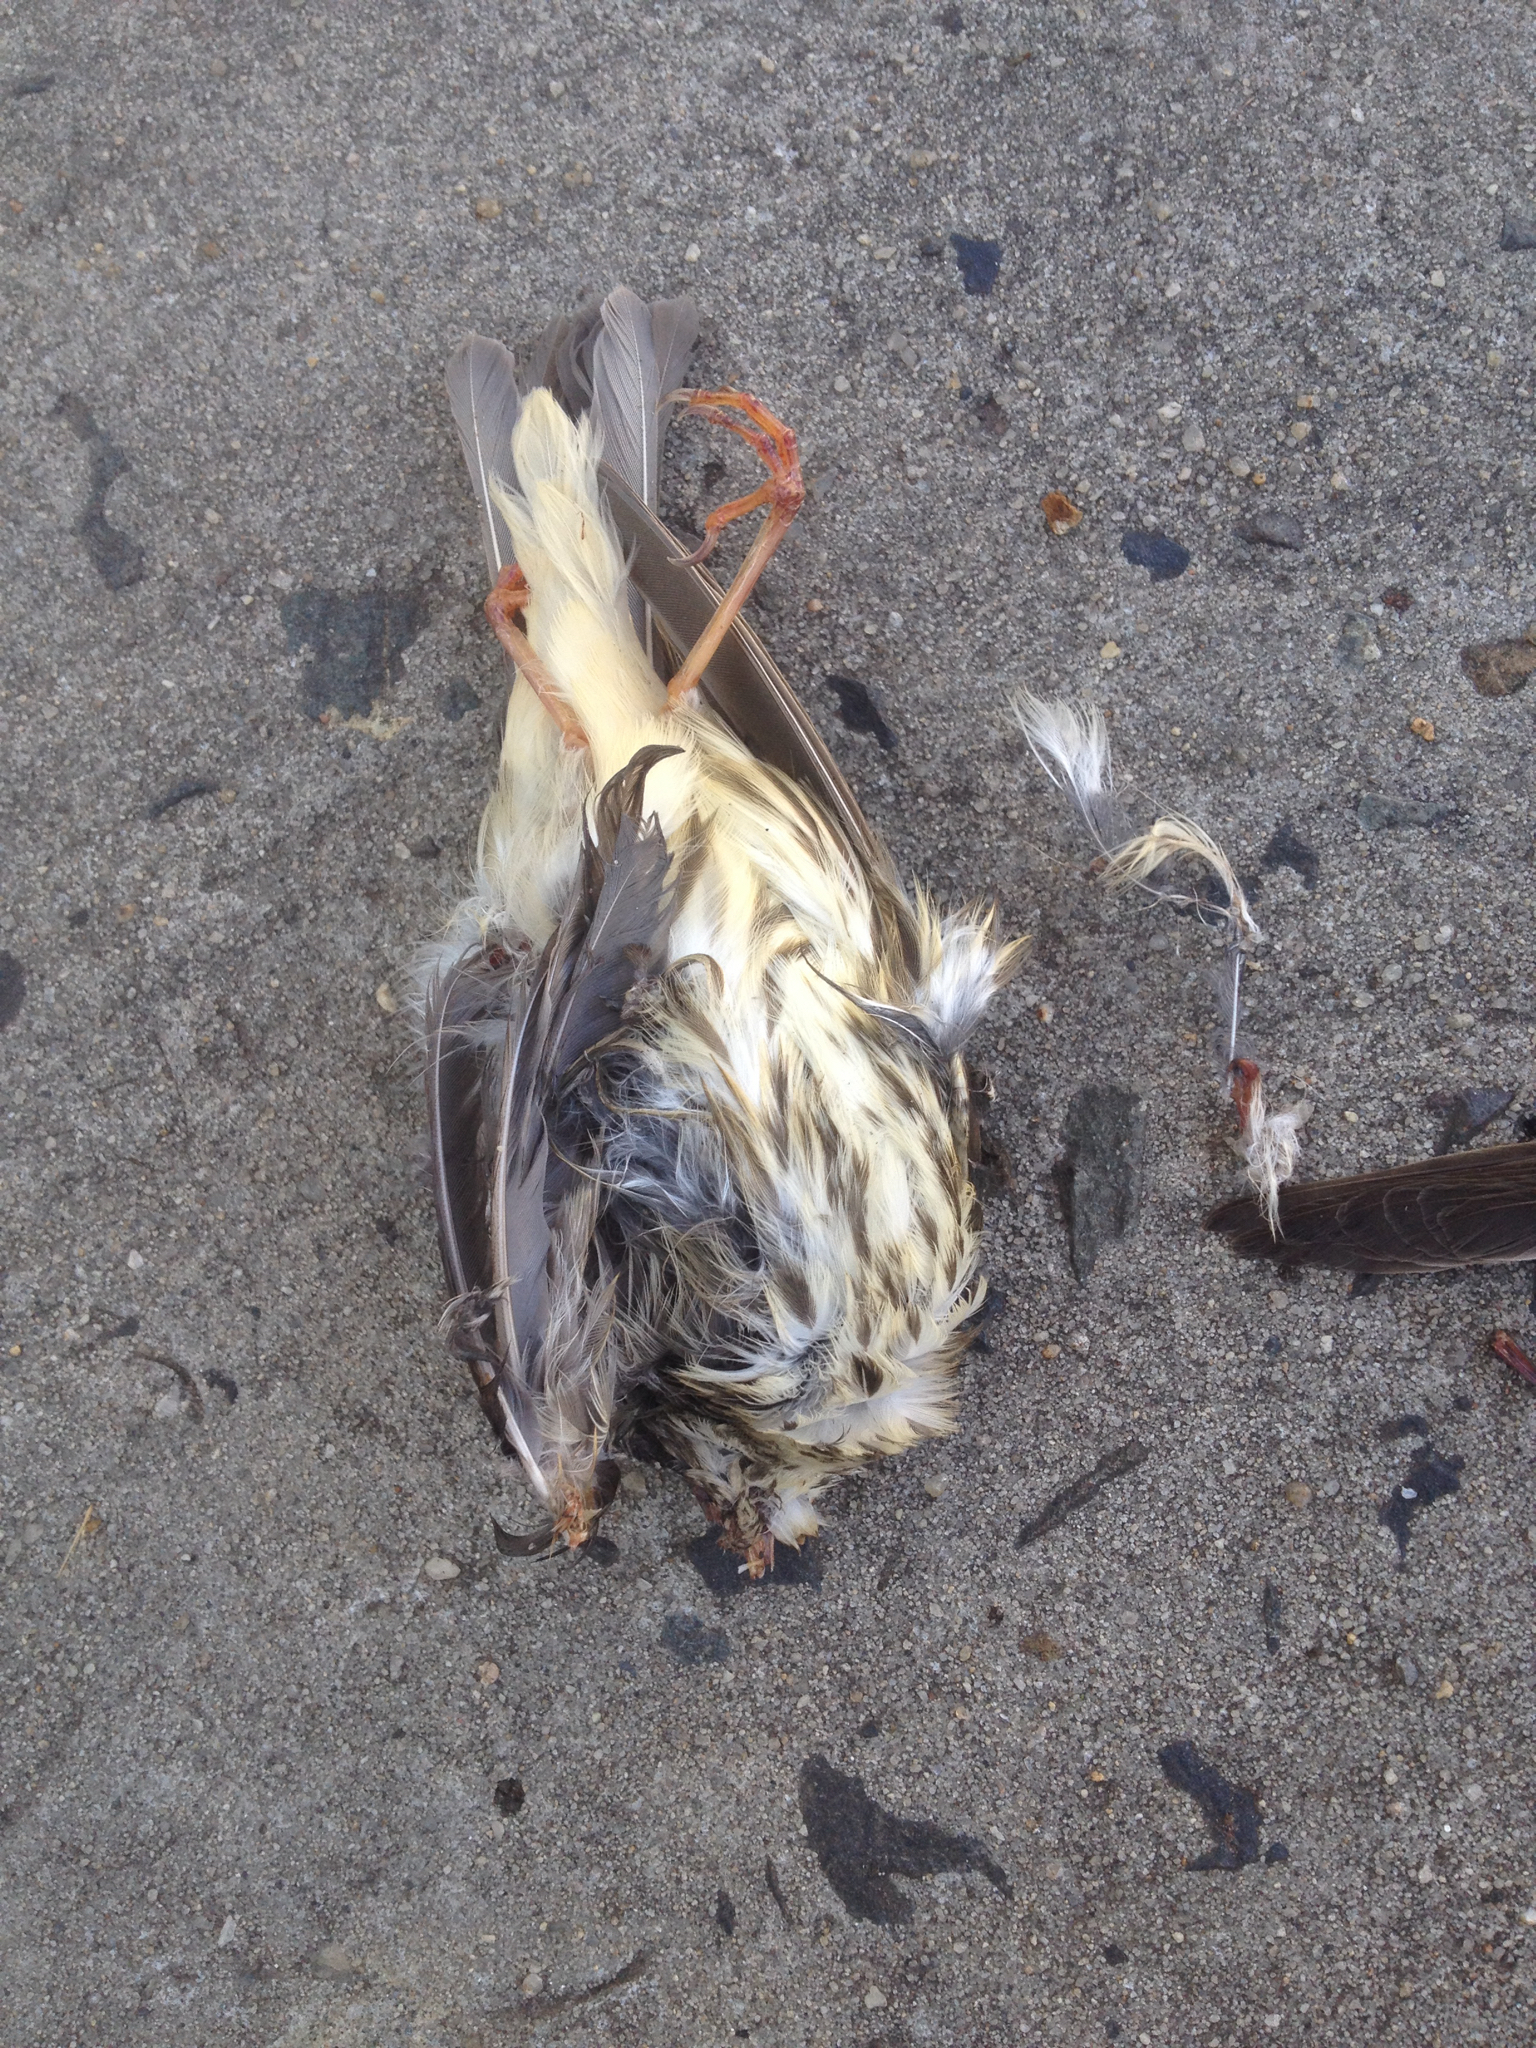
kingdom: Animalia
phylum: Chordata
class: Aves
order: Passeriformes
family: Parulidae
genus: Parkesia
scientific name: Parkesia motacilla
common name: Louisiana waterthrush
